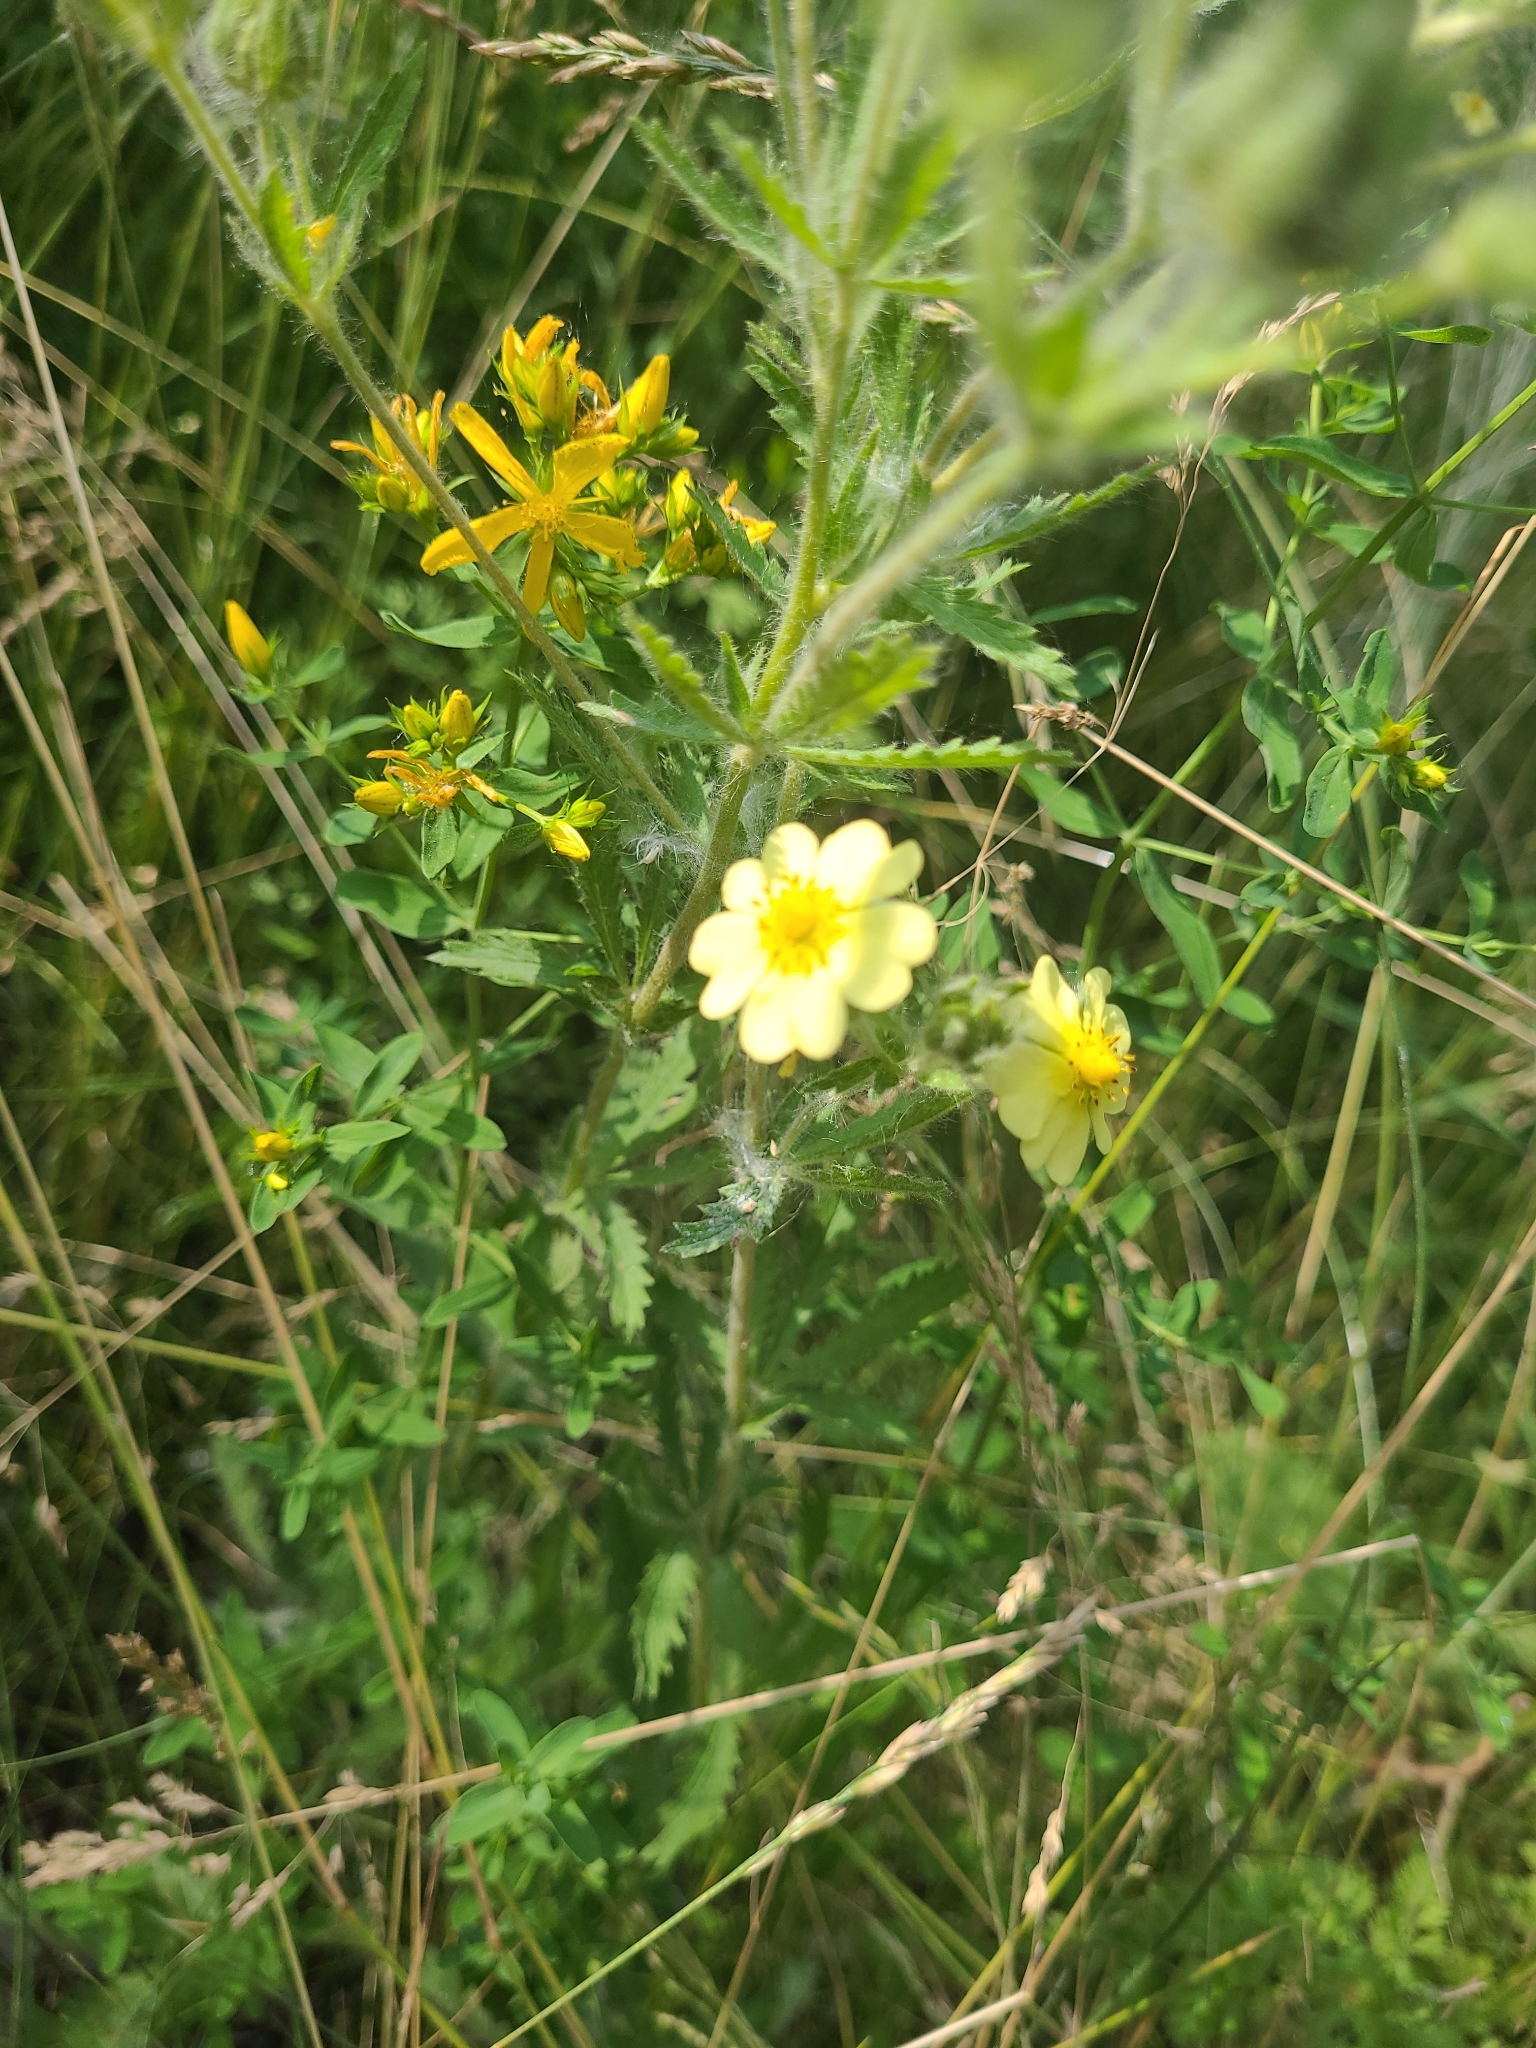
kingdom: Plantae
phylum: Tracheophyta
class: Magnoliopsida
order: Rosales
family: Rosaceae
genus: Potentilla
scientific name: Potentilla recta
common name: Sulphur cinquefoil
